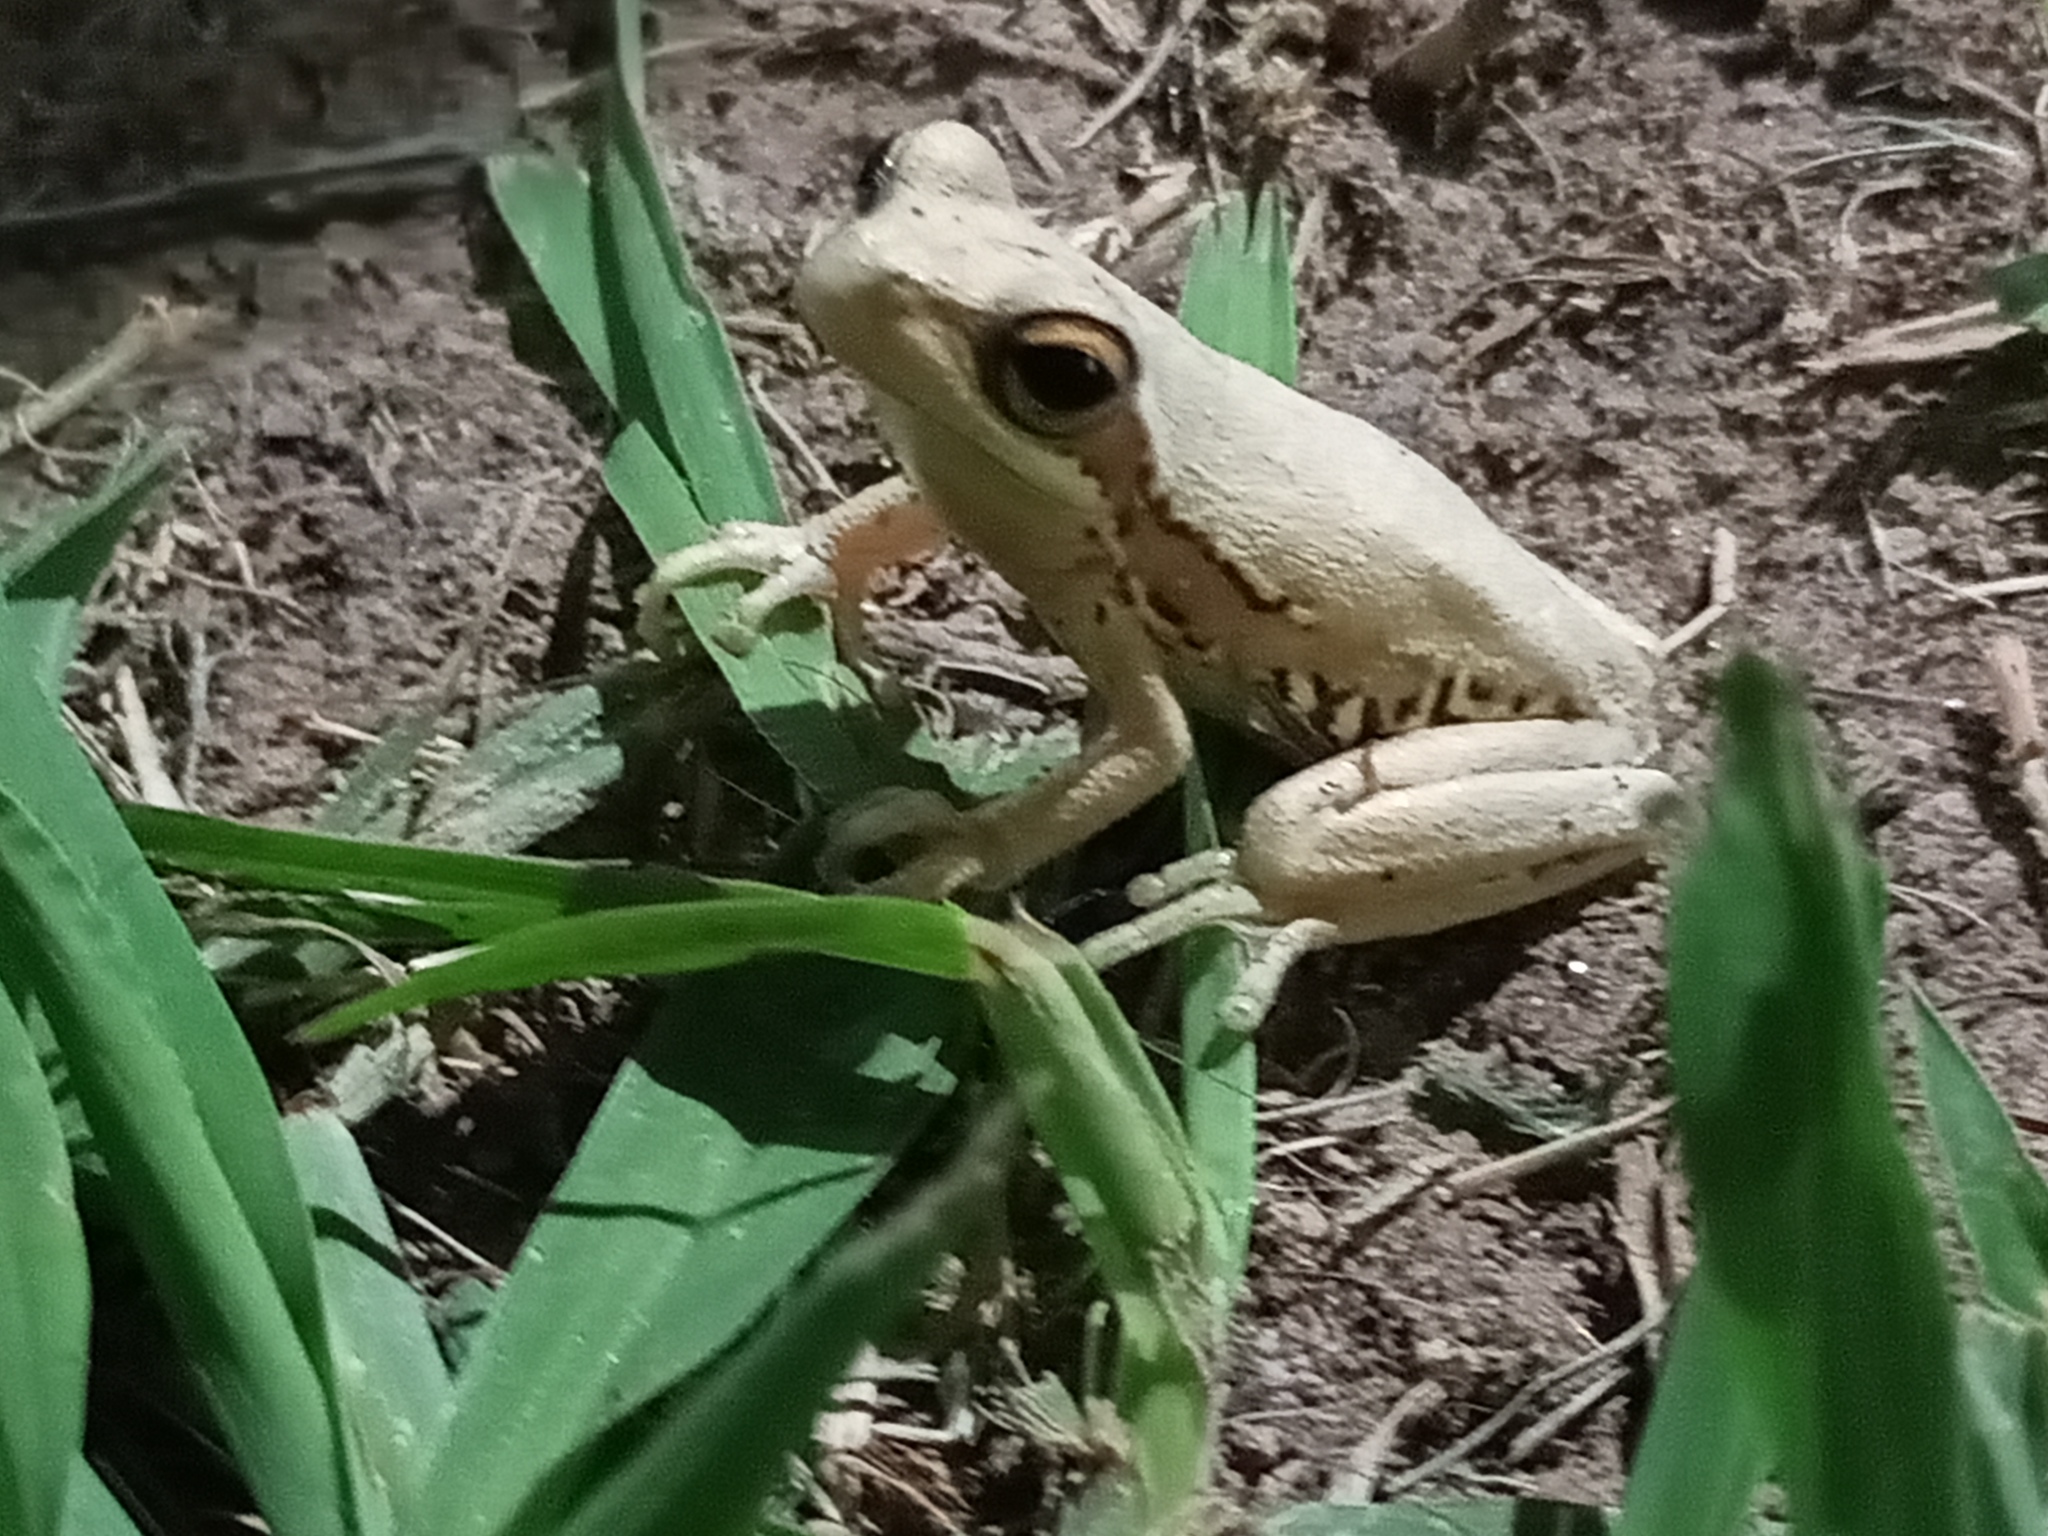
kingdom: Animalia
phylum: Chordata
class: Amphibia
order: Anura
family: Hylidae
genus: Boana
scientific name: Boana pulchella
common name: Montevideo treefrog
